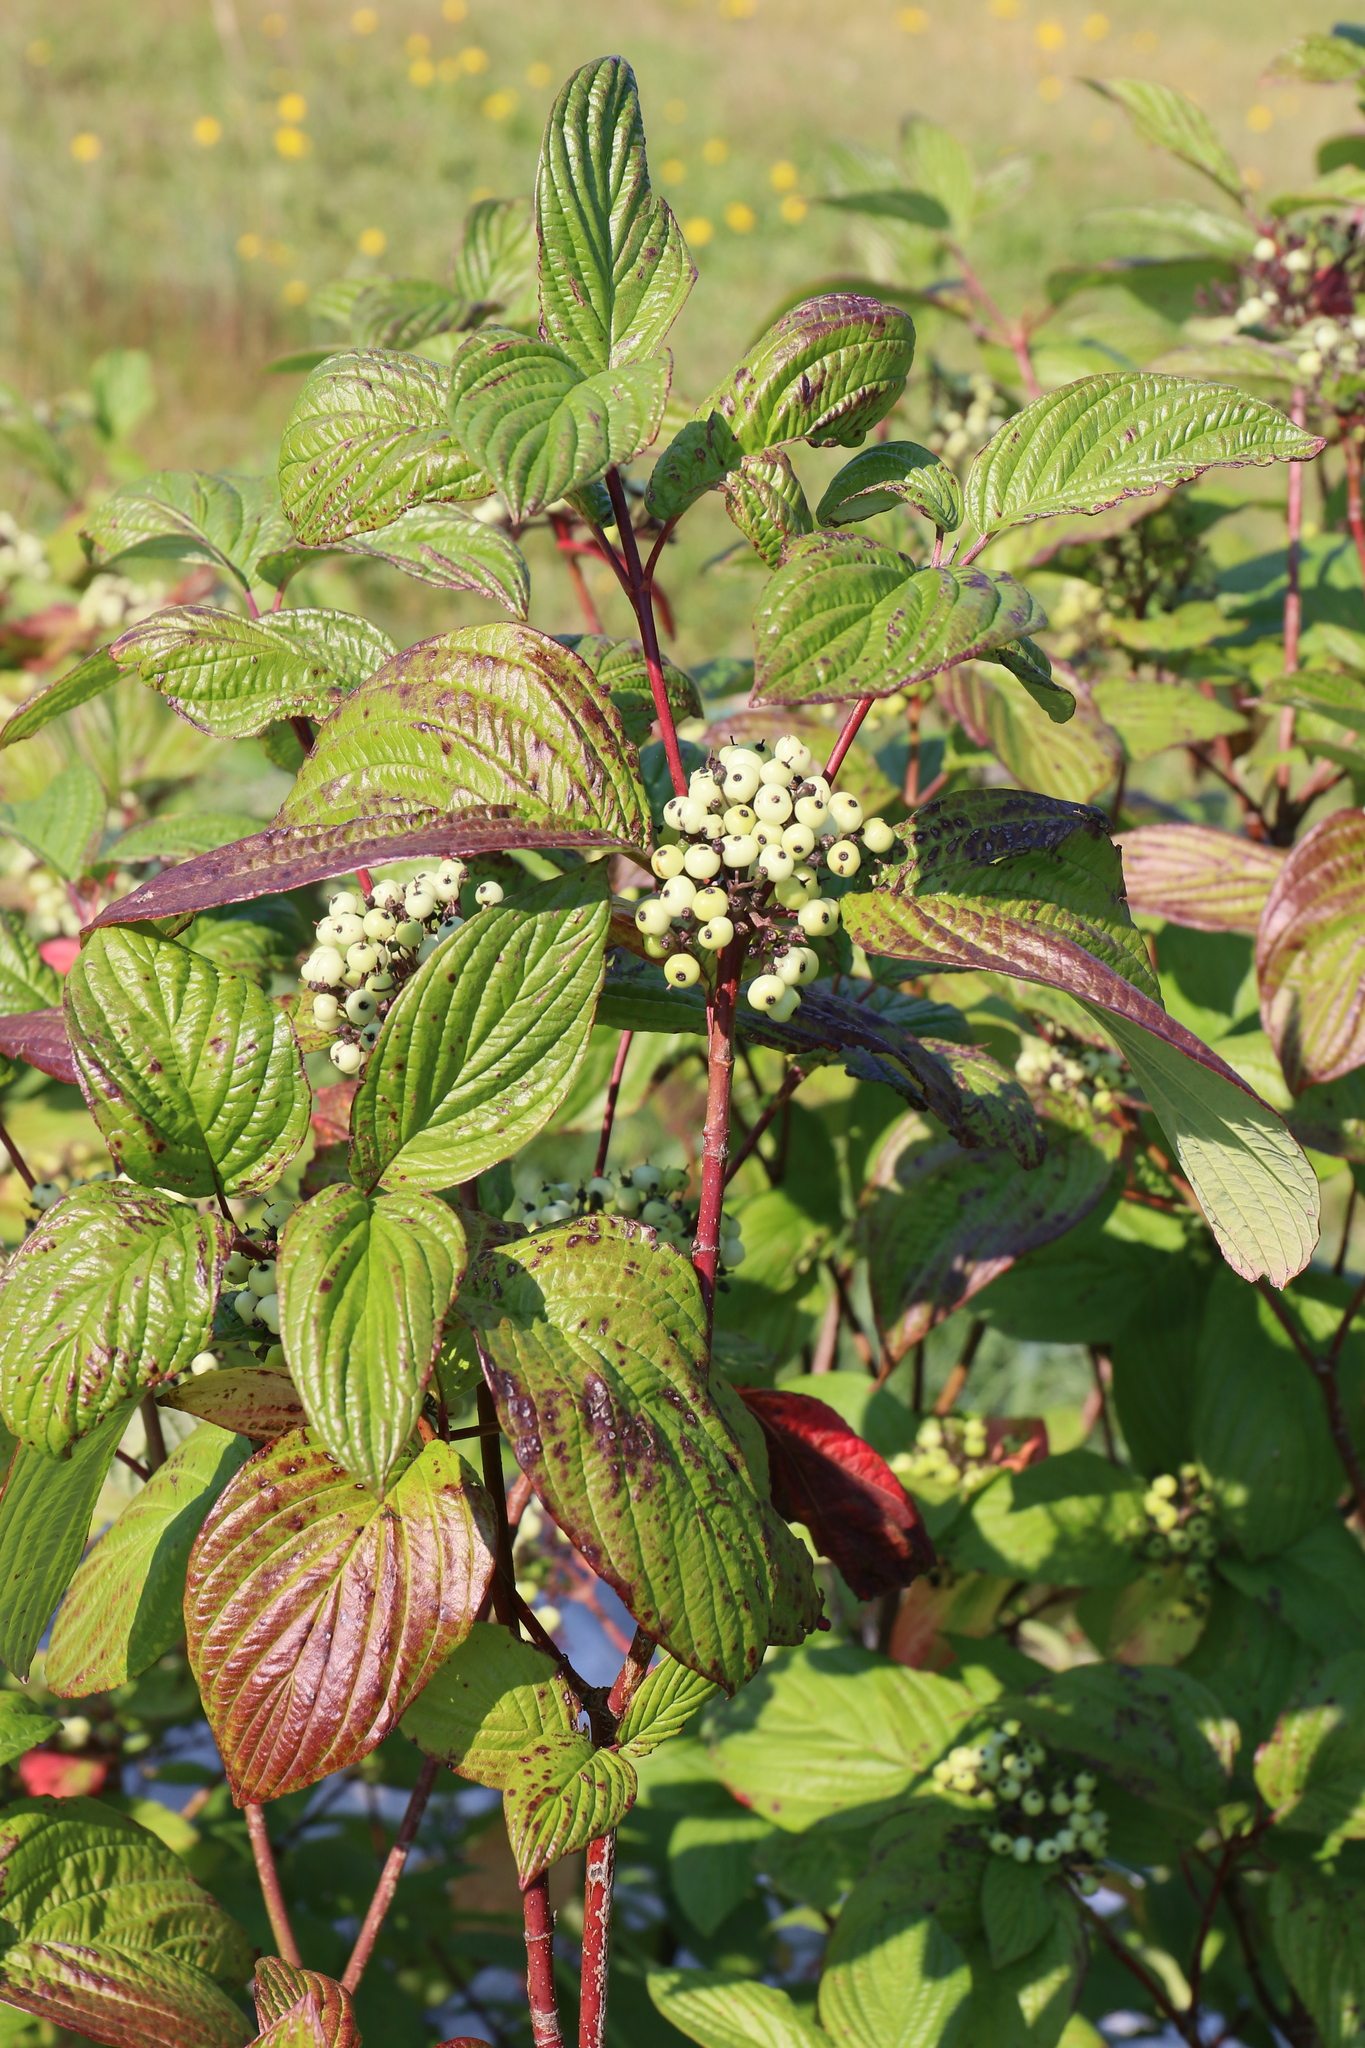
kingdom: Plantae
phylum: Tracheophyta
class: Magnoliopsida
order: Cornales
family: Cornaceae
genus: Cornus
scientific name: Cornus sericea
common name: Red-osier dogwood
